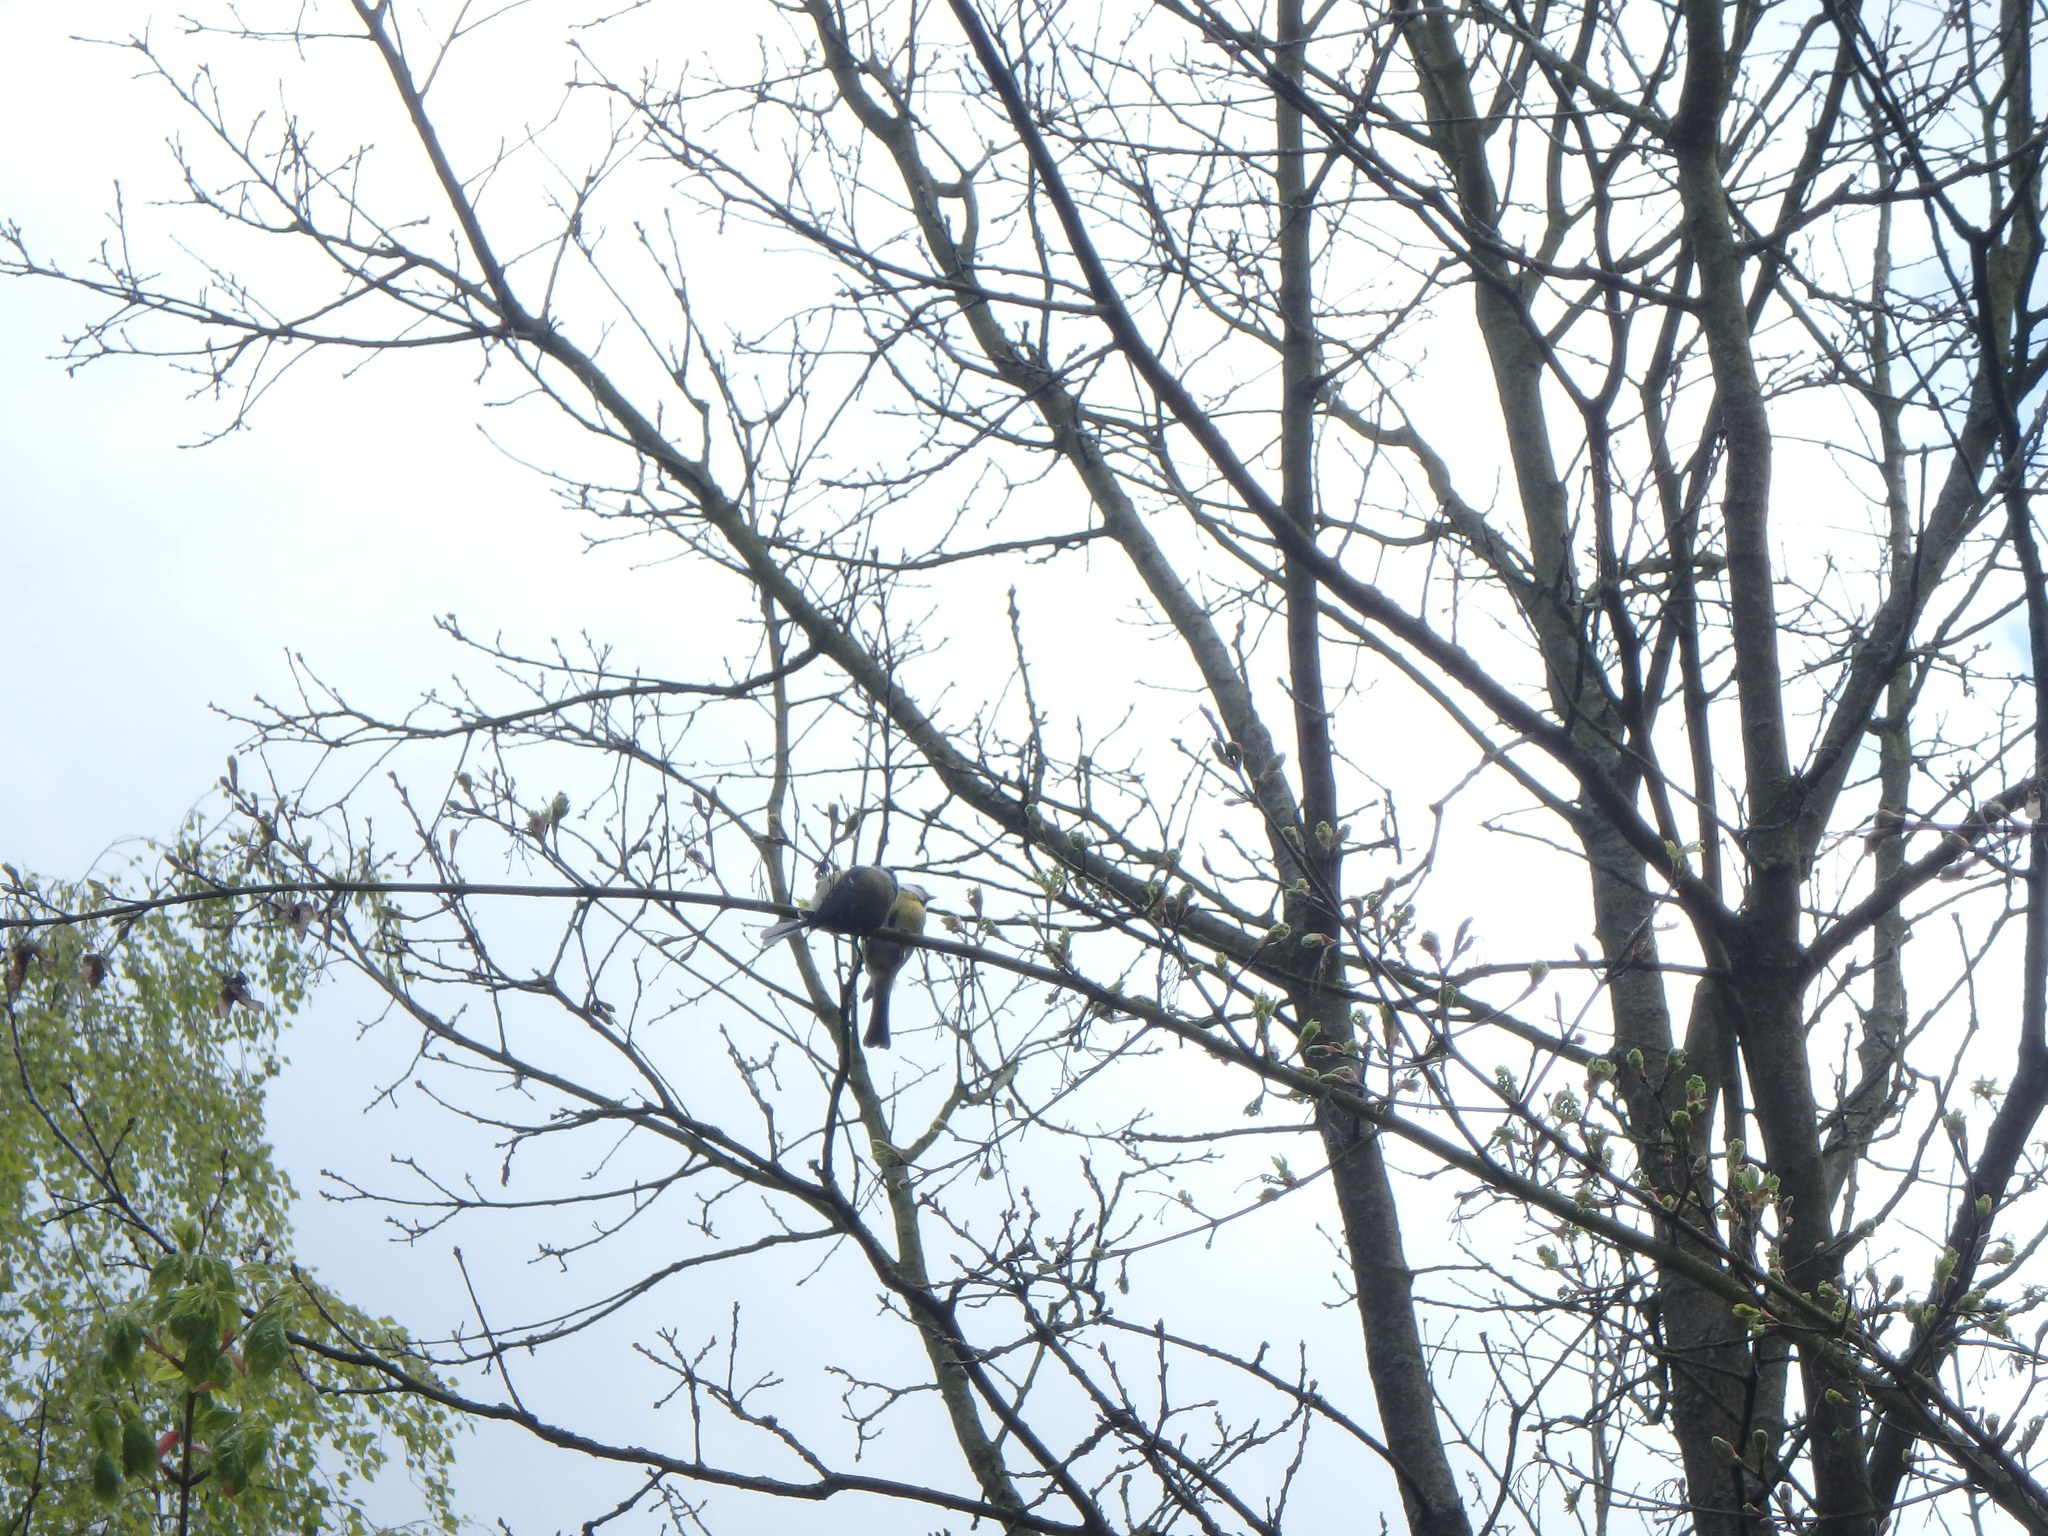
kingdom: Animalia
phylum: Chordata
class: Aves
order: Passeriformes
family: Paridae
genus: Cyanistes
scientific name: Cyanistes caeruleus
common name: Eurasian blue tit
